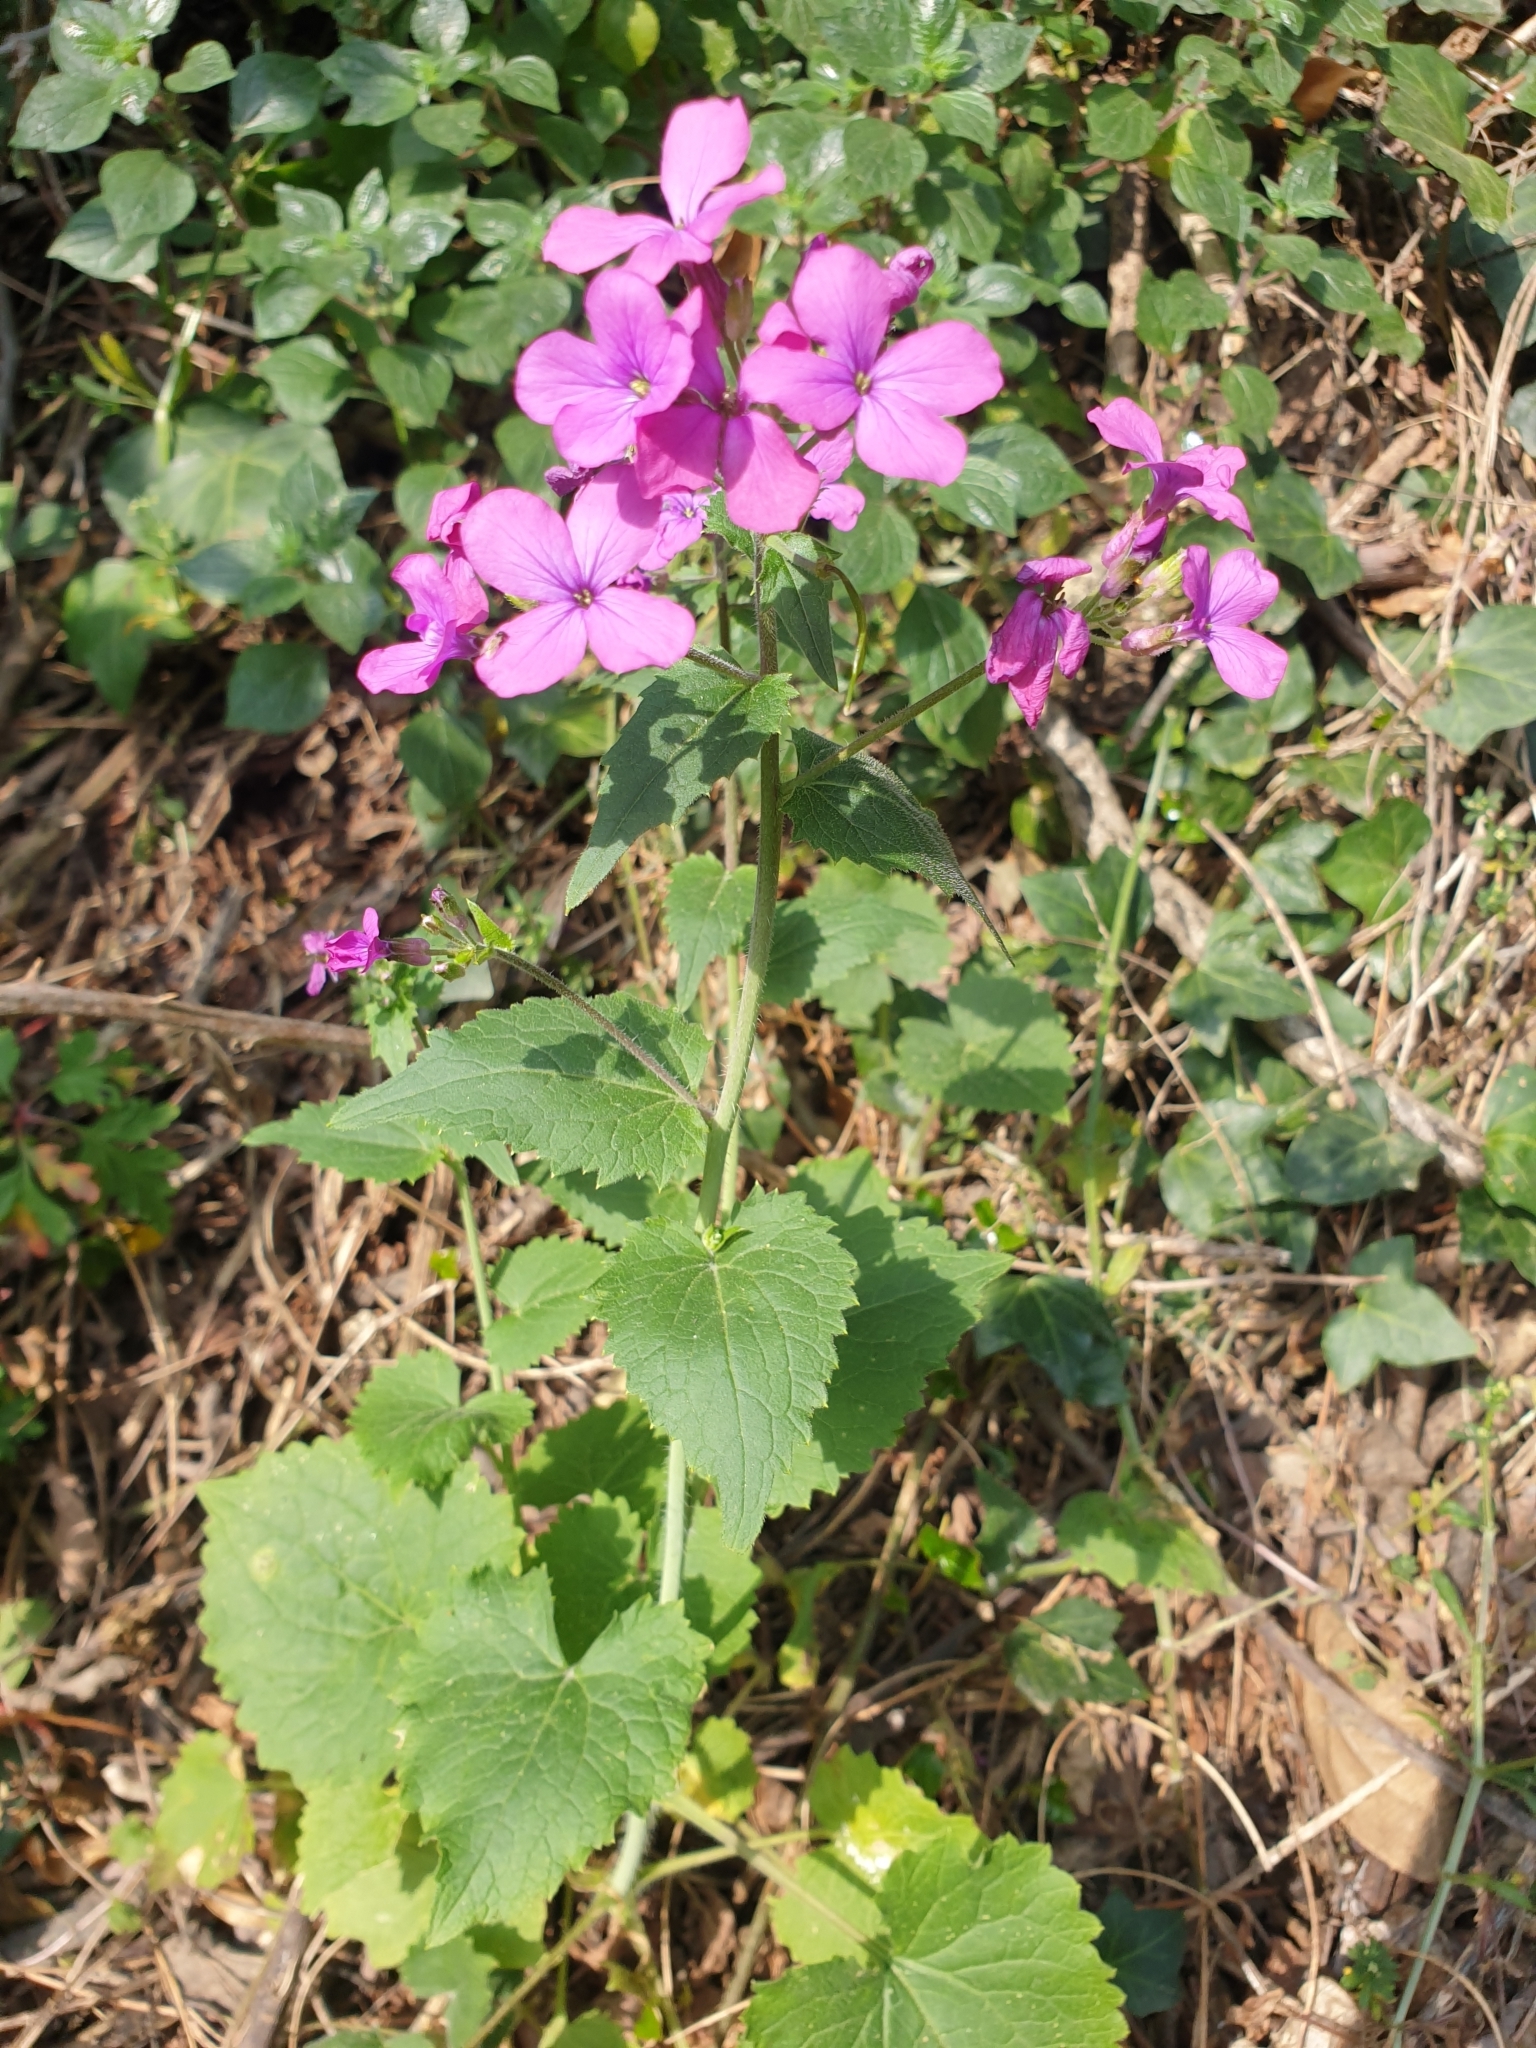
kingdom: Plantae
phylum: Tracheophyta
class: Magnoliopsida
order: Brassicales
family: Brassicaceae
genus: Lunaria
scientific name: Lunaria annua
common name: Honesty
